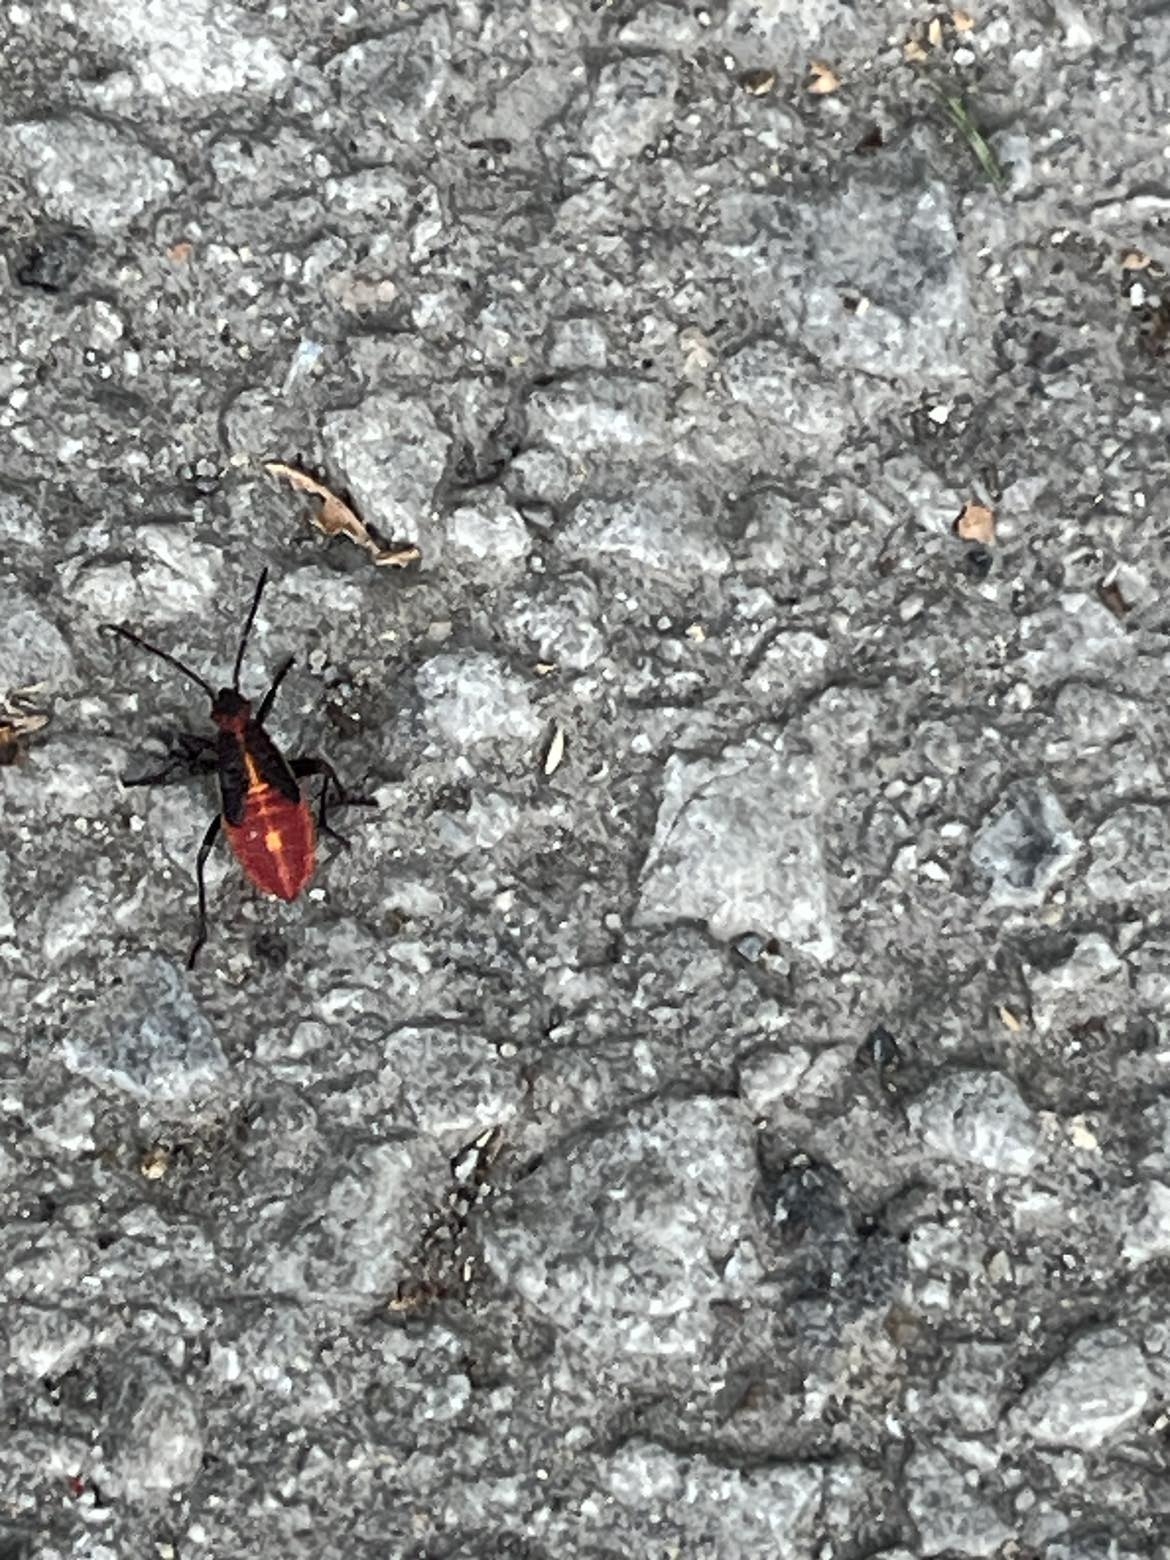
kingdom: Animalia
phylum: Arthropoda
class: Insecta
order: Hemiptera
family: Rhopalidae
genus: Boisea
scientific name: Boisea trivittata
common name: Boxelder bug
